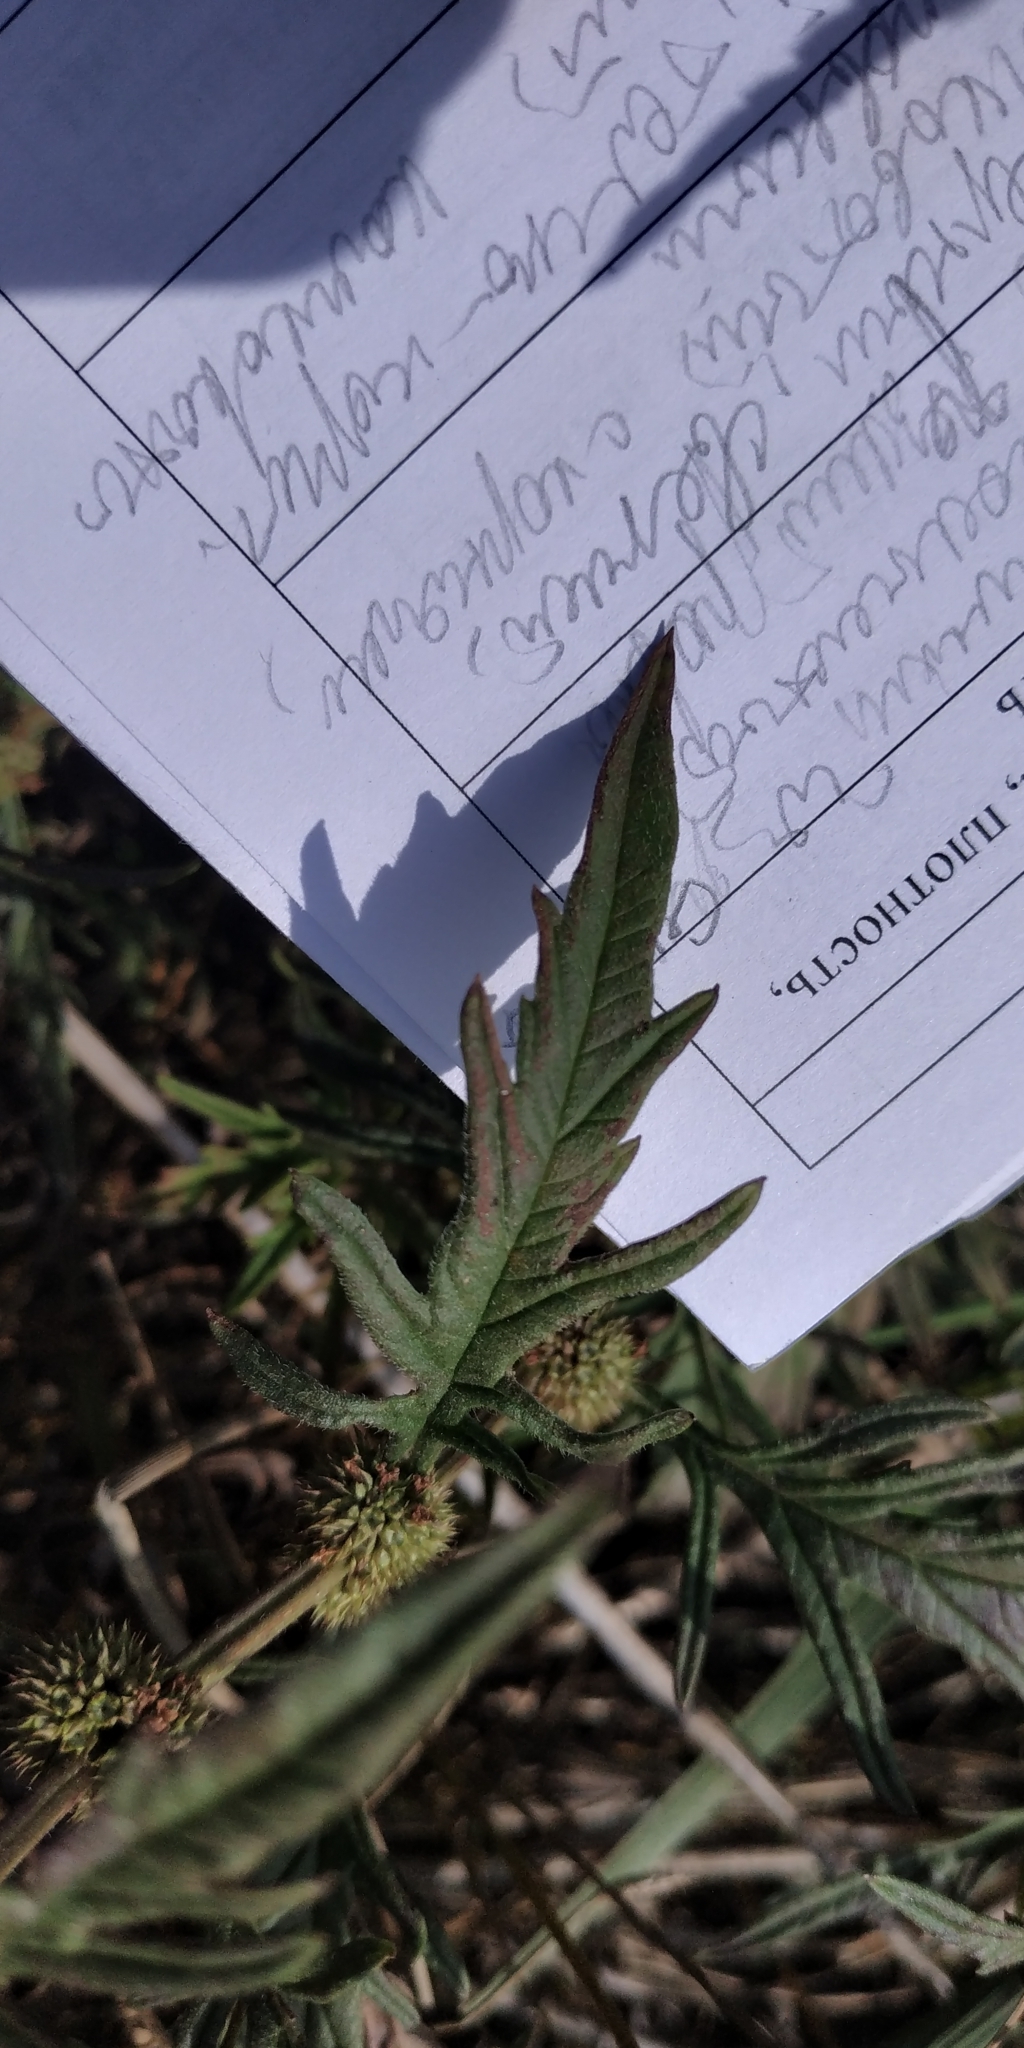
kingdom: Plantae
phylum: Tracheophyta
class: Magnoliopsida
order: Lamiales
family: Lamiaceae
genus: Lycopus
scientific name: Lycopus exaltatus
